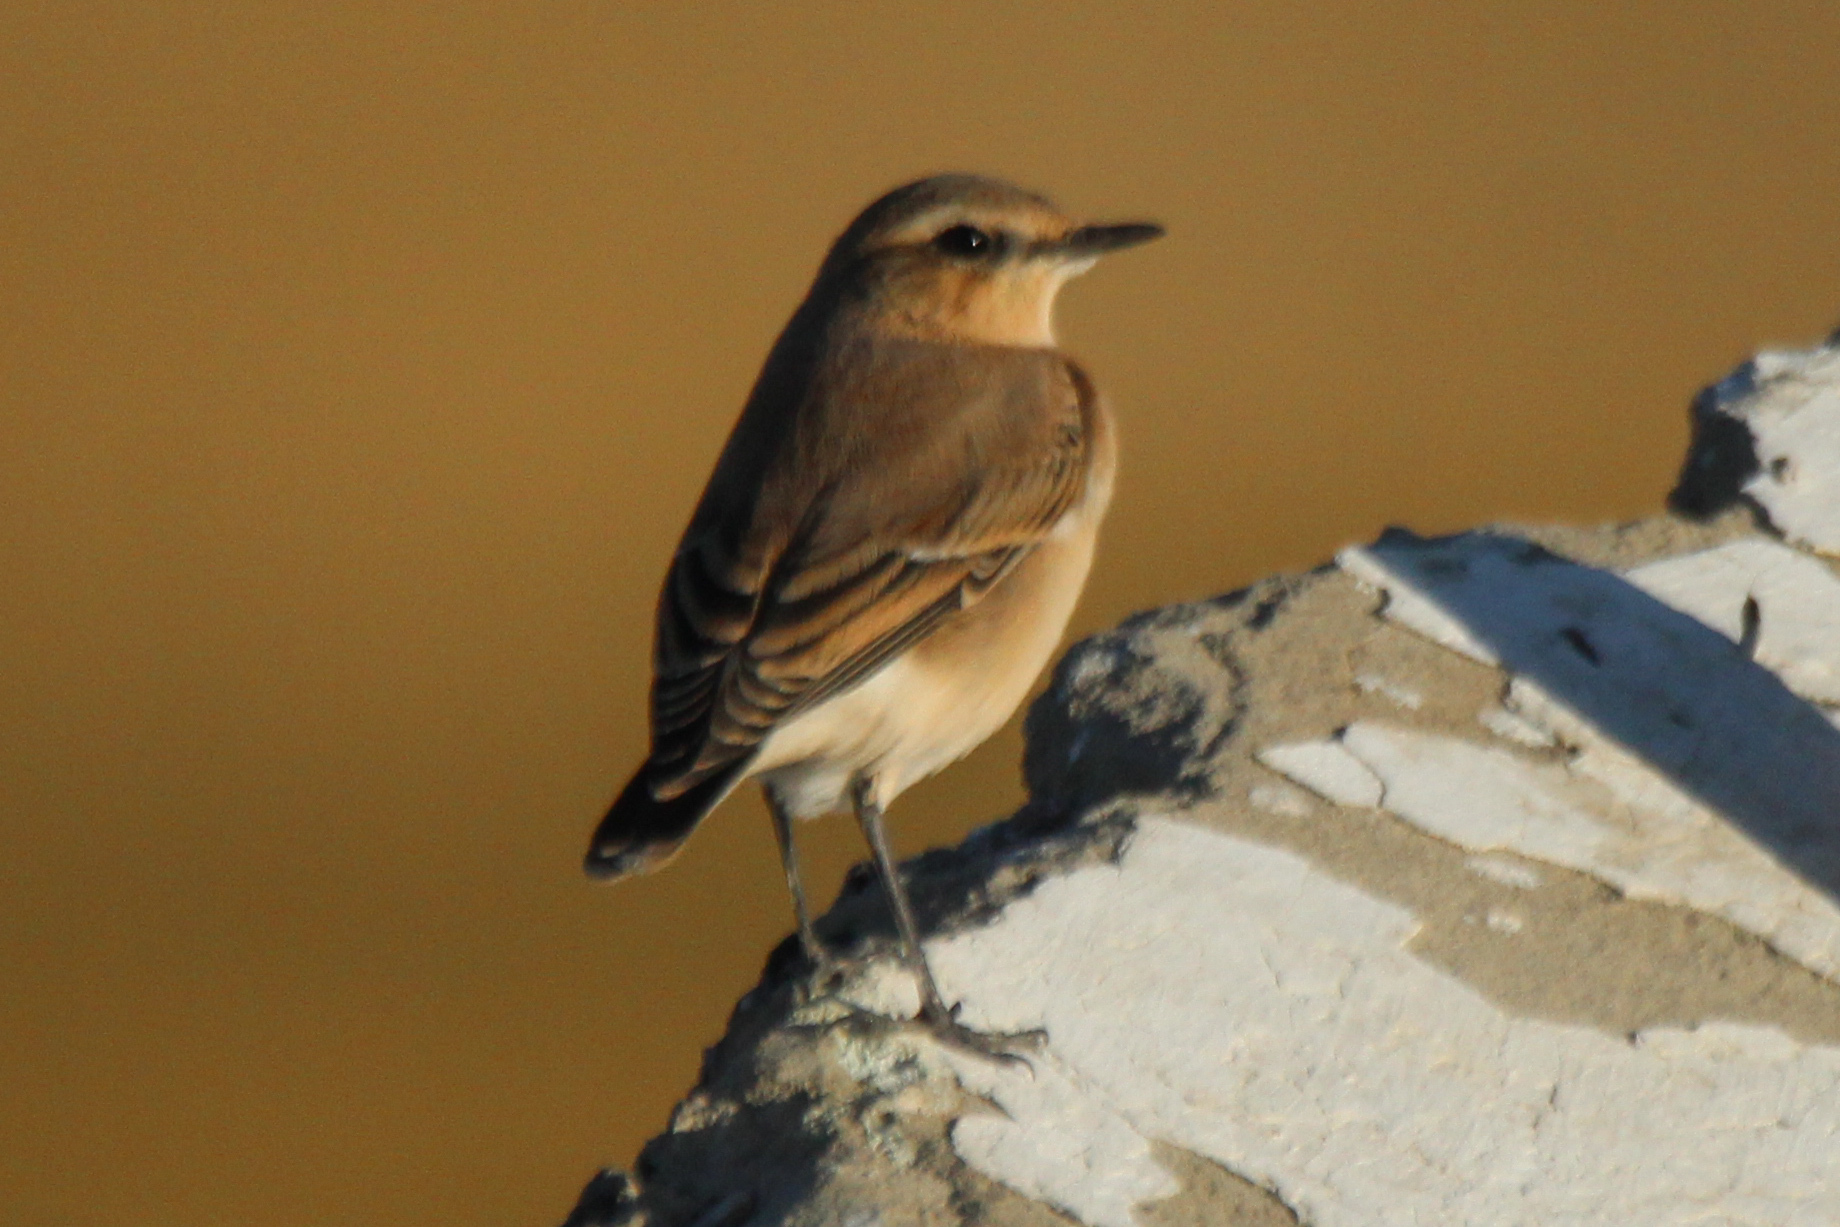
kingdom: Animalia
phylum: Chordata
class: Aves
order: Passeriformes
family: Muscicapidae
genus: Oenanthe
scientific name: Oenanthe oenanthe
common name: Northern wheatear
